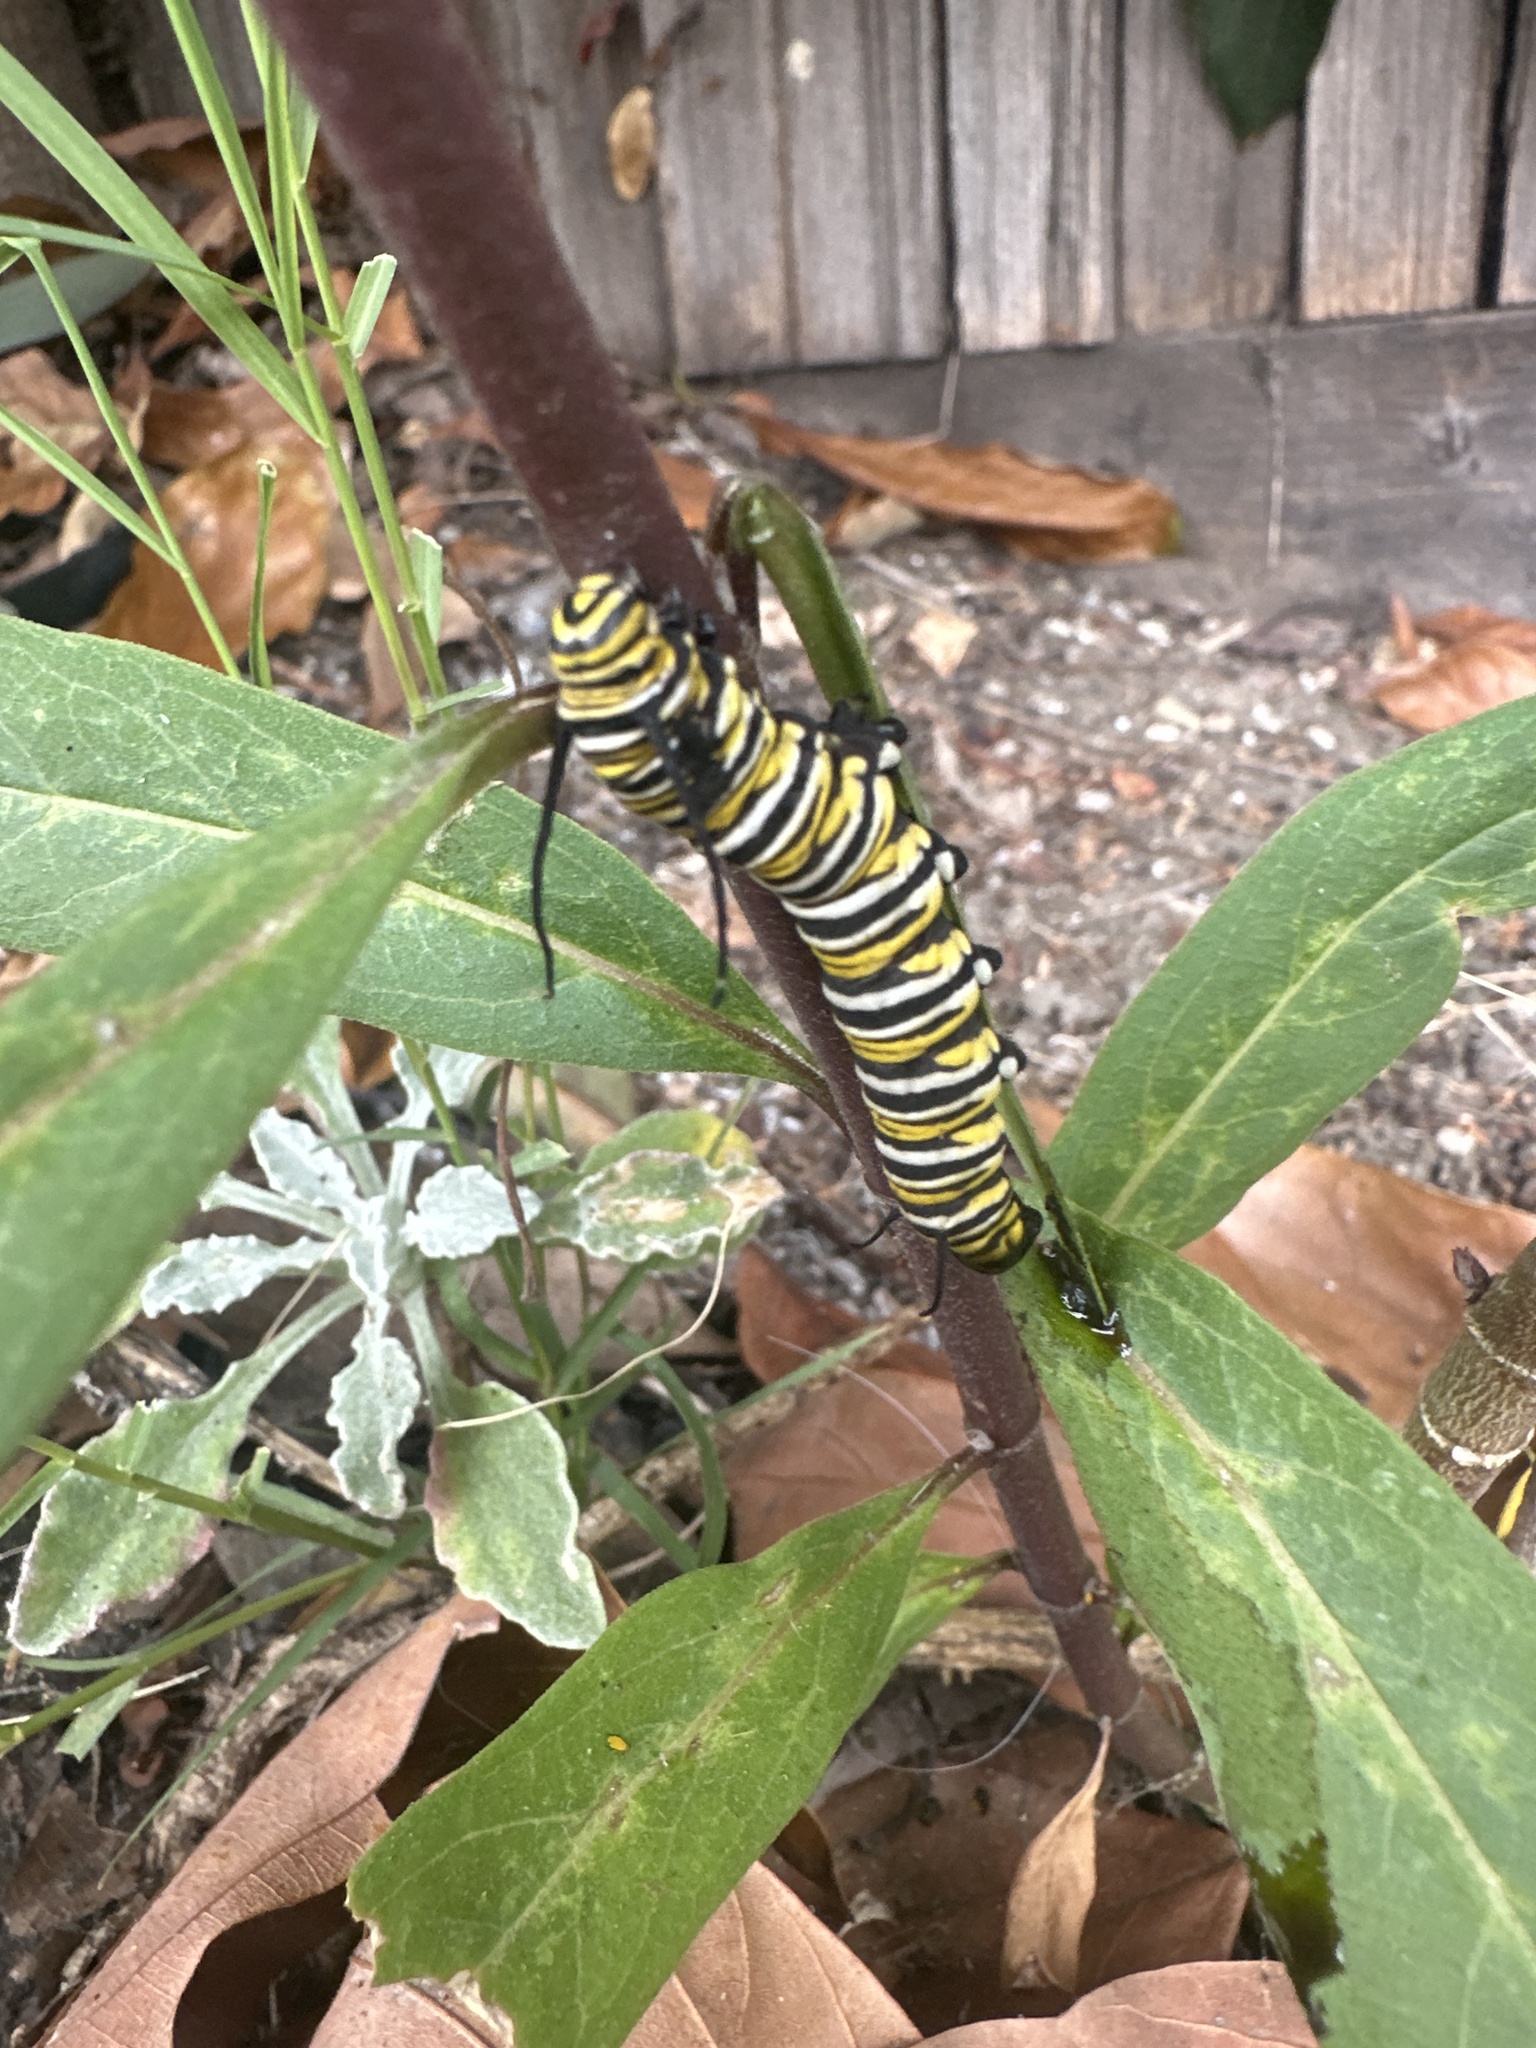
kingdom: Animalia
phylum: Arthropoda
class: Insecta
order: Lepidoptera
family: Nymphalidae
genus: Danaus
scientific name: Danaus plexippus
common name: Monarch
